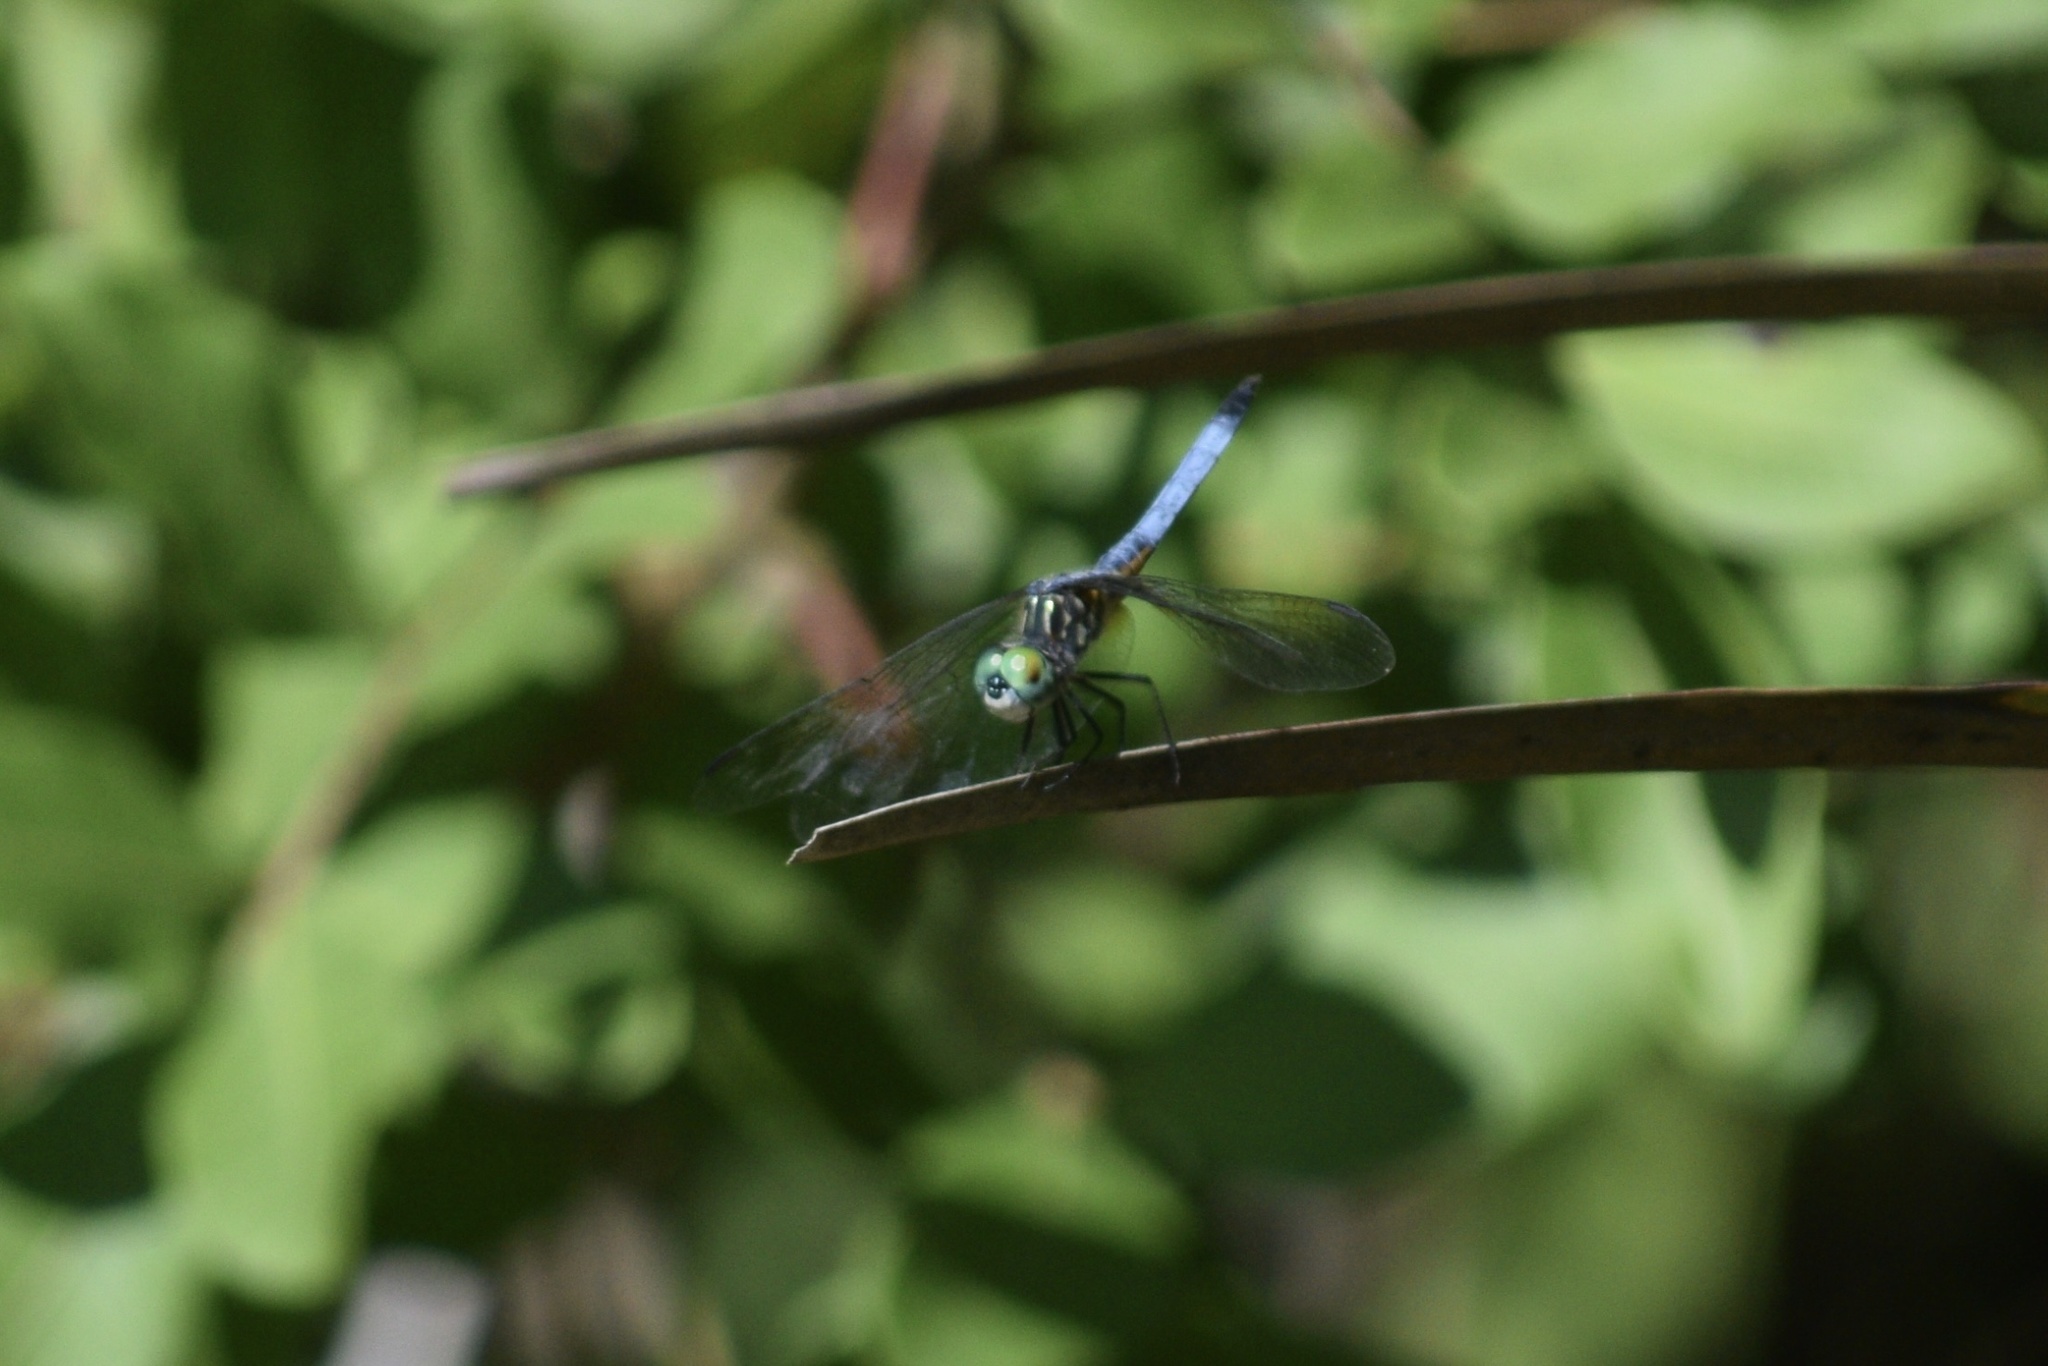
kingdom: Animalia
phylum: Arthropoda
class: Insecta
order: Odonata
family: Libellulidae
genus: Pachydiplax
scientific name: Pachydiplax longipennis
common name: Blue dasher
